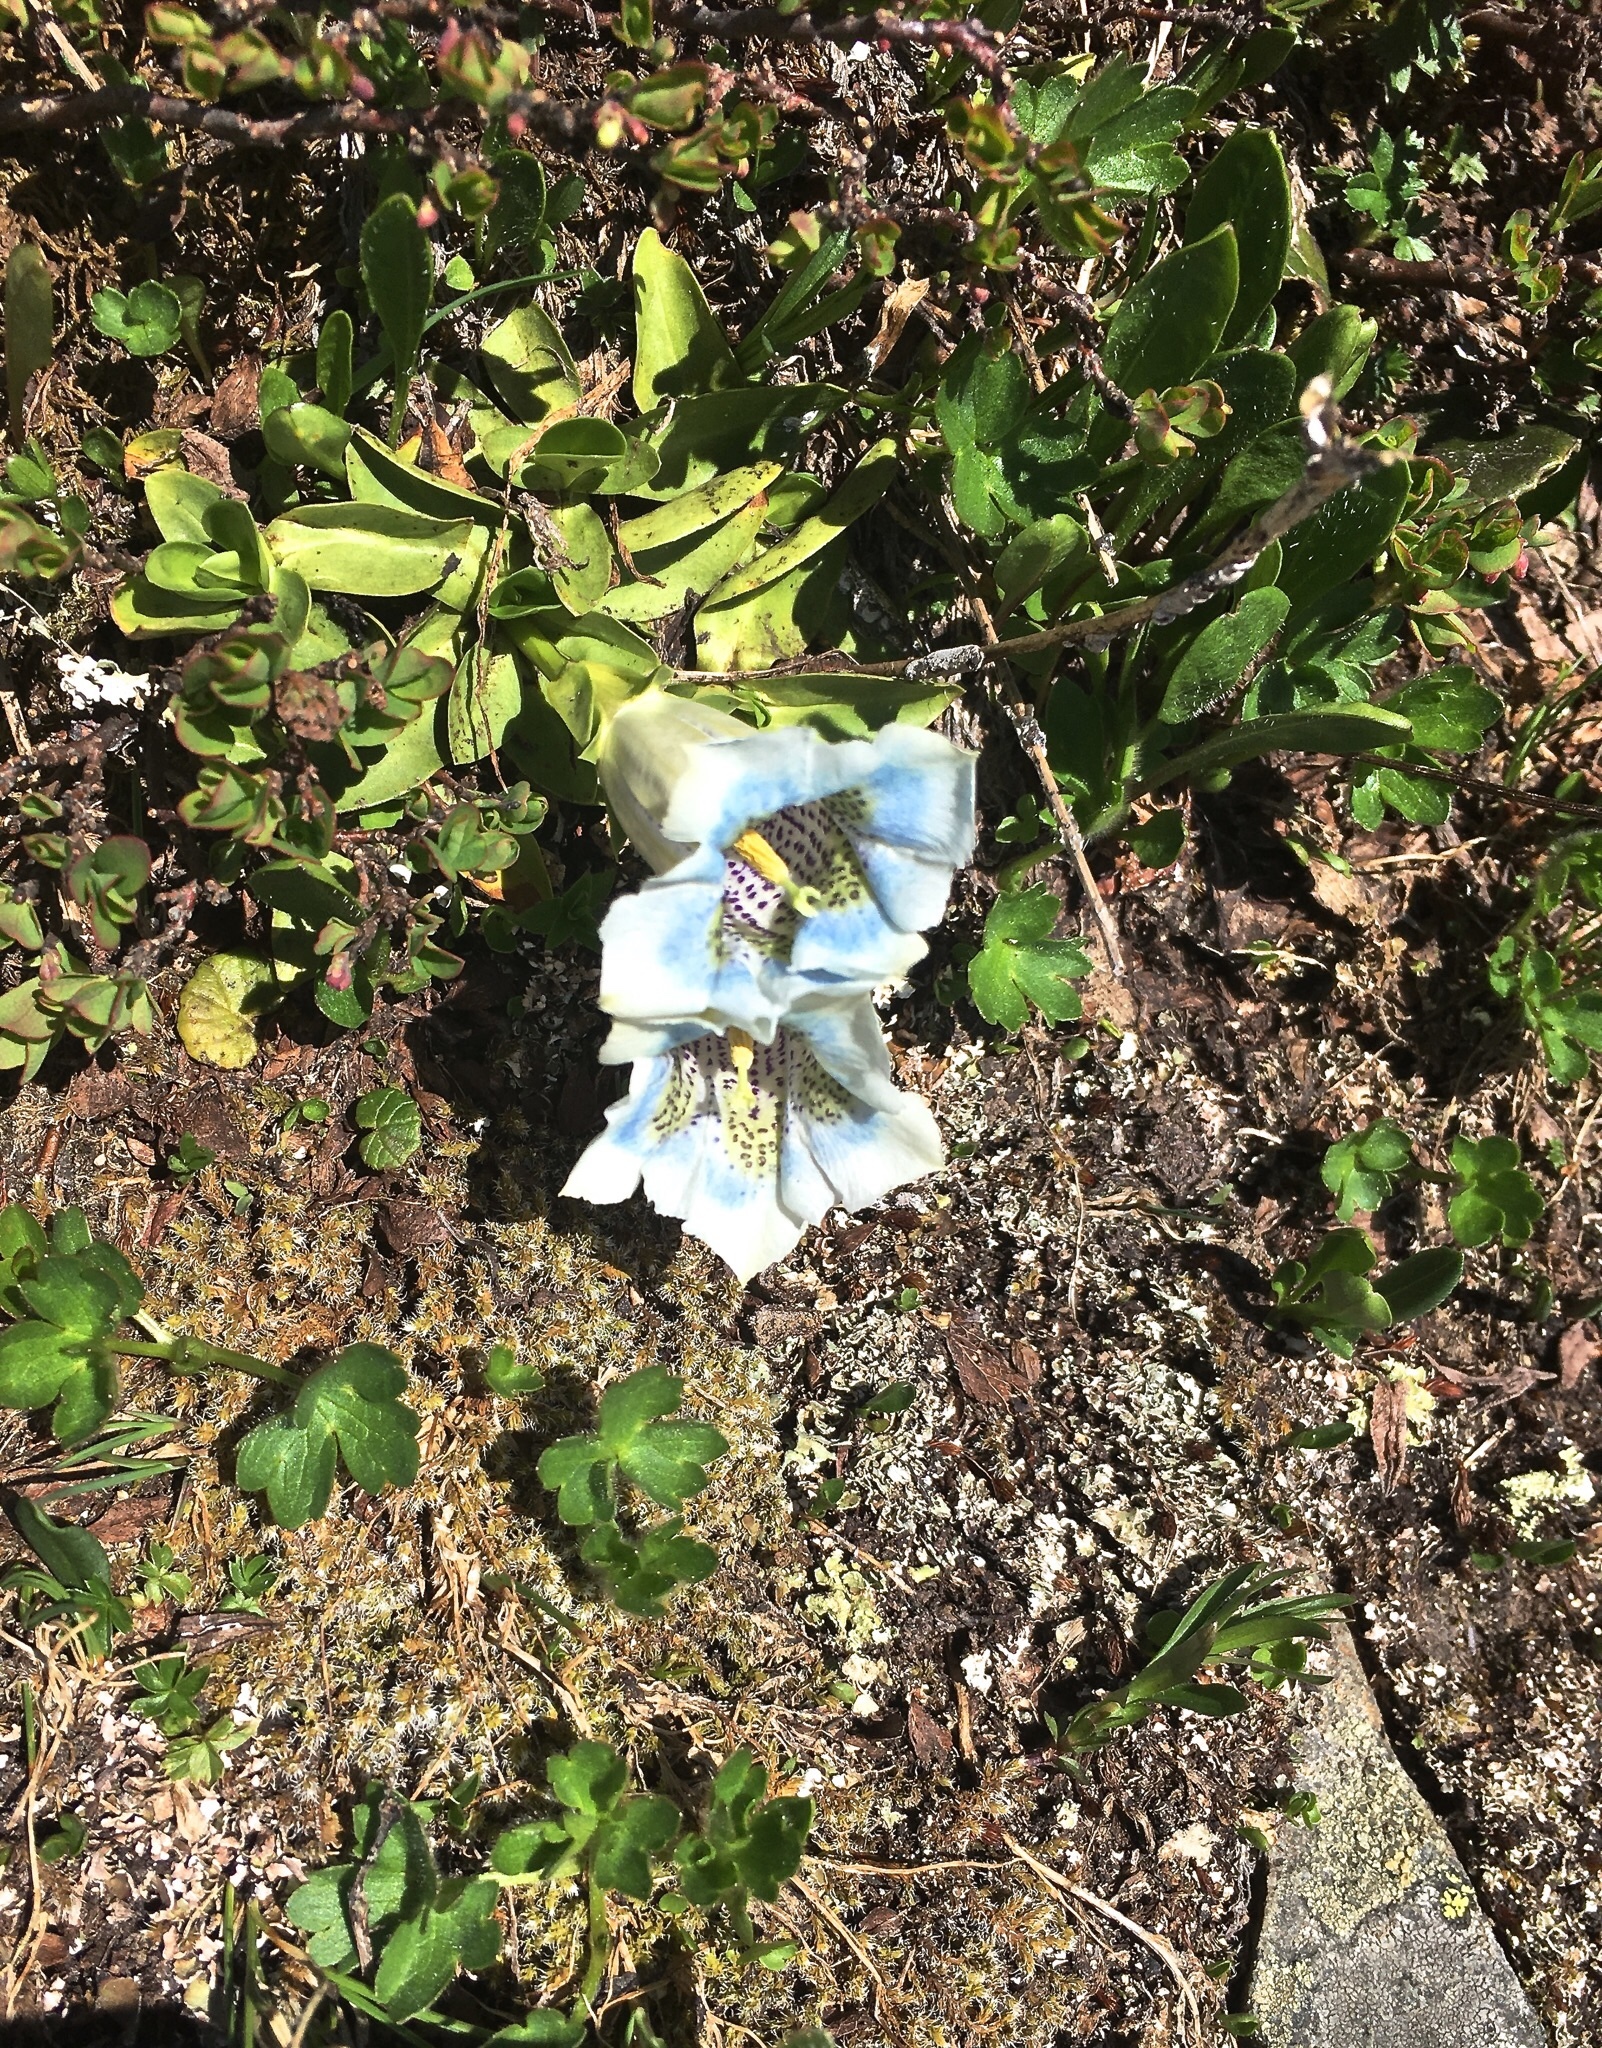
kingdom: Plantae
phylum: Tracheophyta
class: Magnoliopsida
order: Gentianales
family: Gentianaceae
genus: Gentiana
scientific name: Gentiana acaulis
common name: Trumpet gentian
